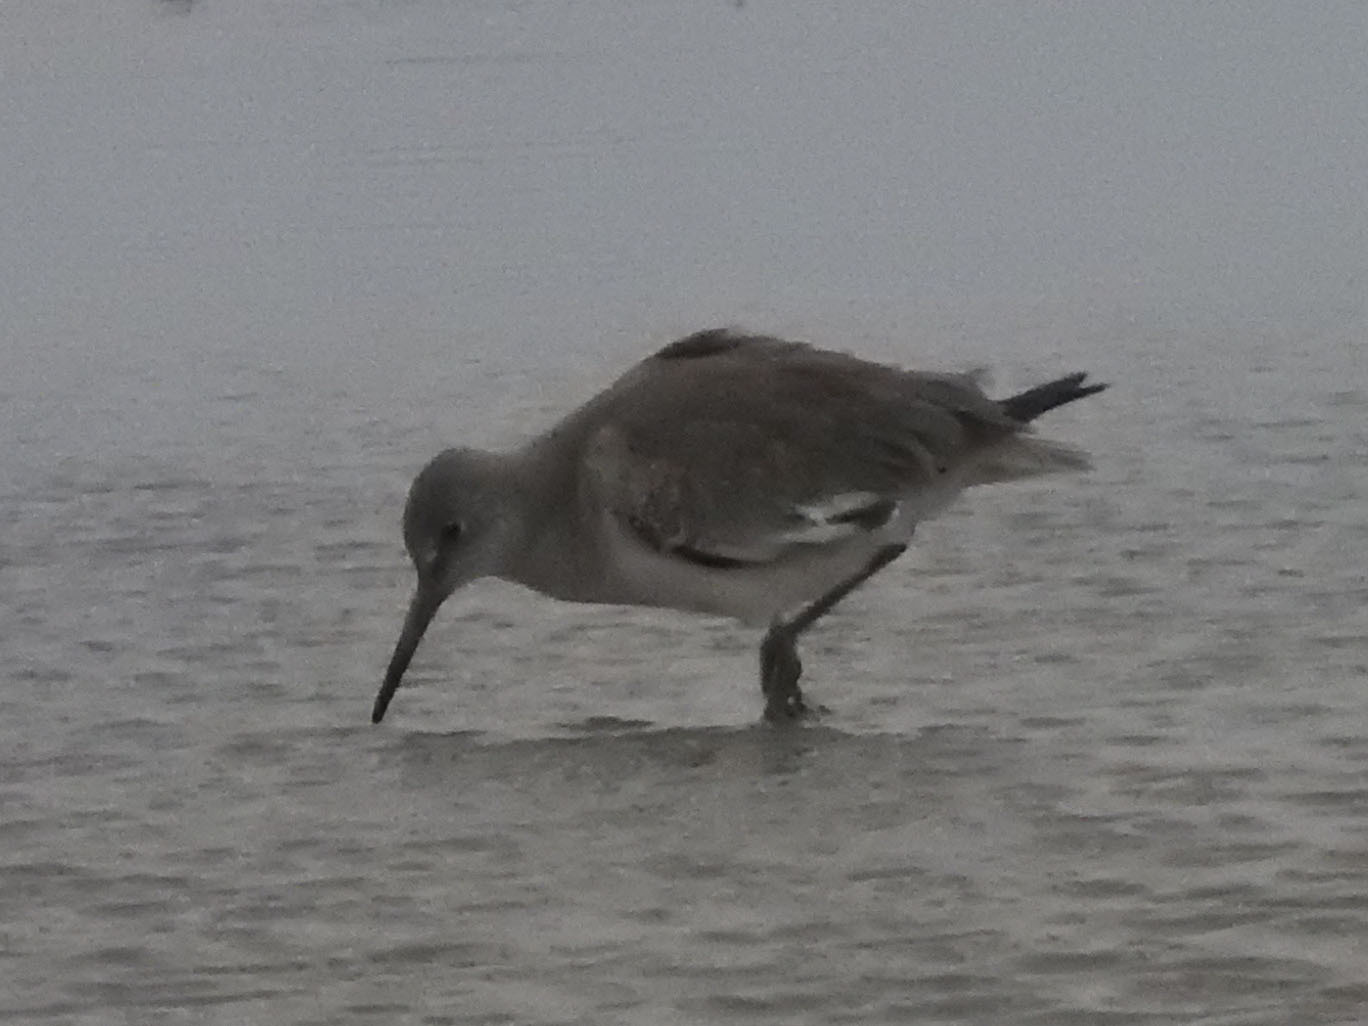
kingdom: Animalia
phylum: Chordata
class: Aves
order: Charadriiformes
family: Scolopacidae
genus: Tringa
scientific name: Tringa semipalmata
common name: Willet
